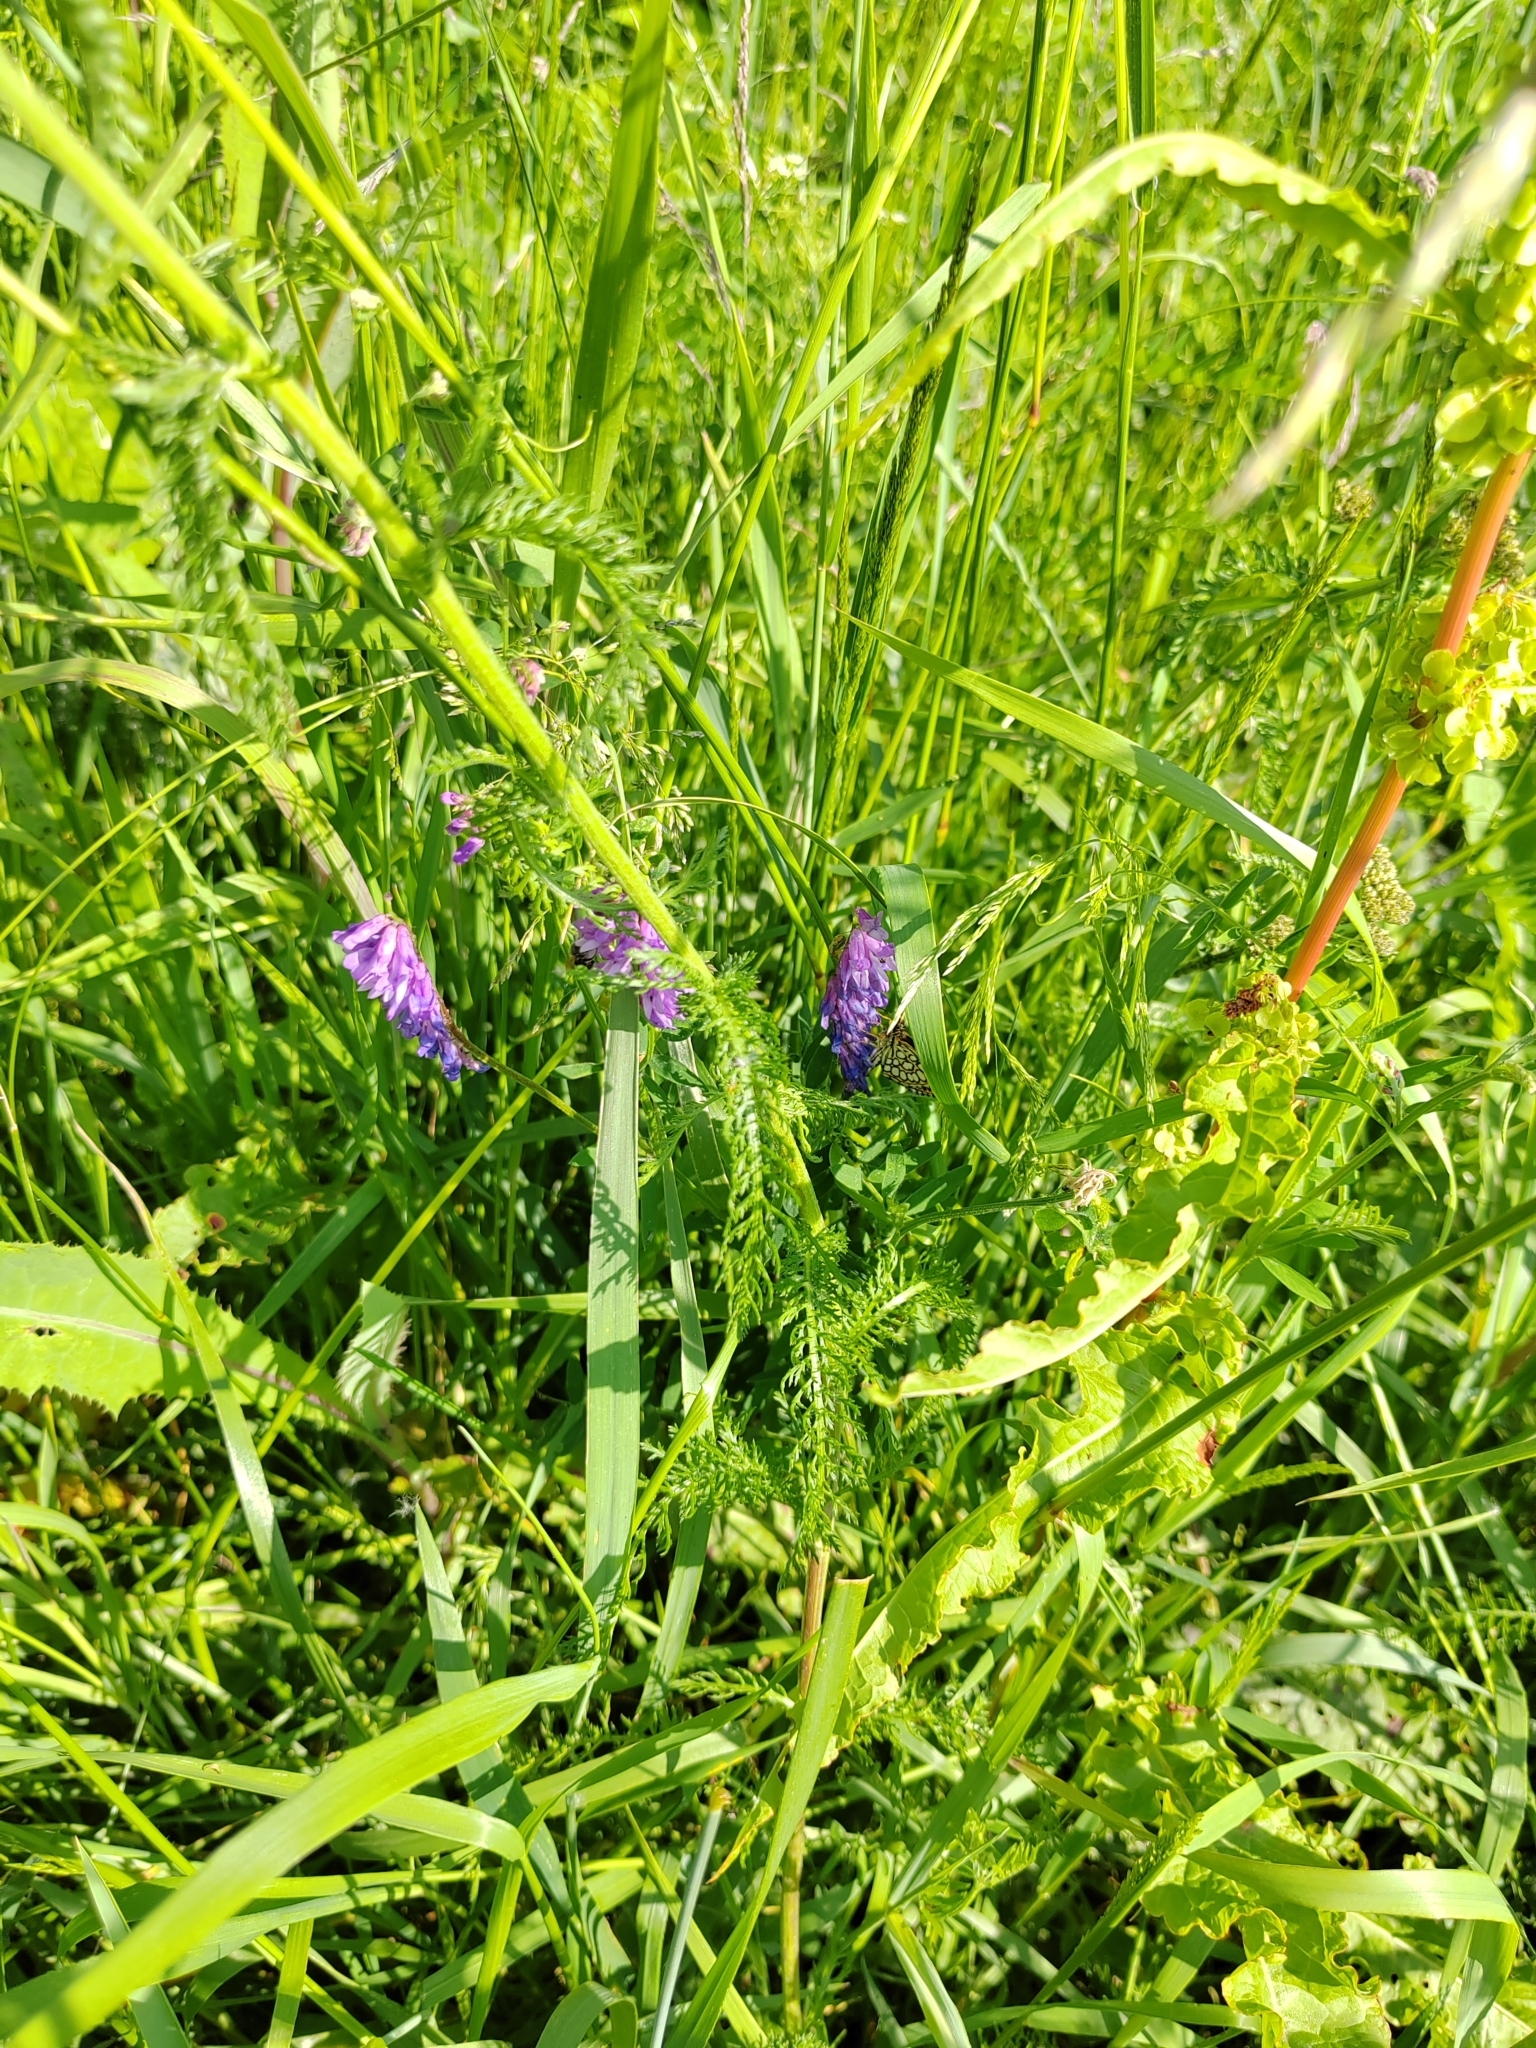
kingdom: Plantae
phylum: Tracheophyta
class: Magnoliopsida
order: Fabales
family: Fabaceae
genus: Vicia
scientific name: Vicia cracca
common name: Bird vetch
